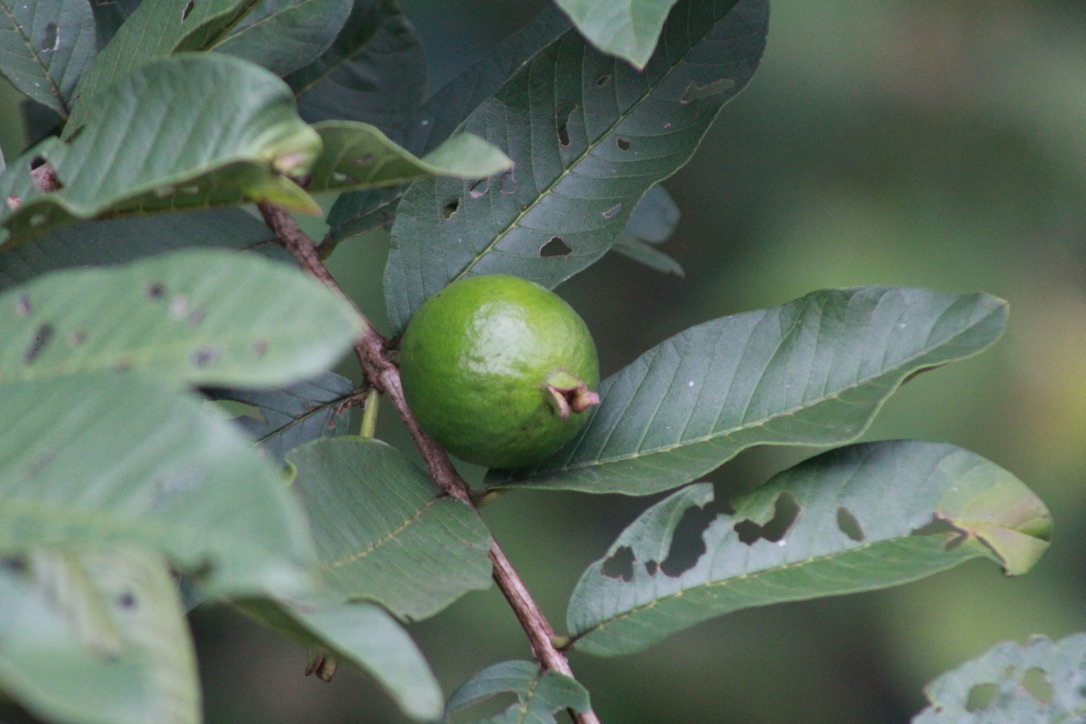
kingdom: Plantae
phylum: Tracheophyta
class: Magnoliopsida
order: Myrtales
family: Myrtaceae
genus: Psidium
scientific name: Psidium guajava
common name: Guava
